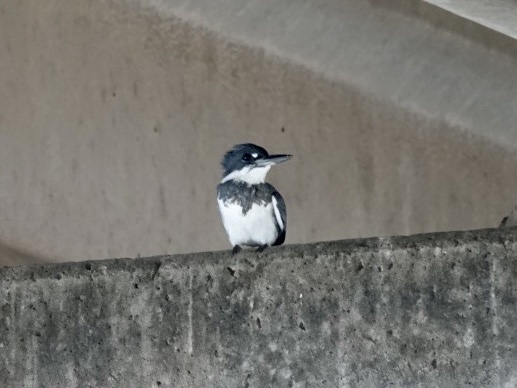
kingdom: Animalia
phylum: Chordata
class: Aves
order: Coraciiformes
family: Alcedinidae
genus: Megaceryle
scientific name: Megaceryle alcyon
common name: Belted kingfisher
